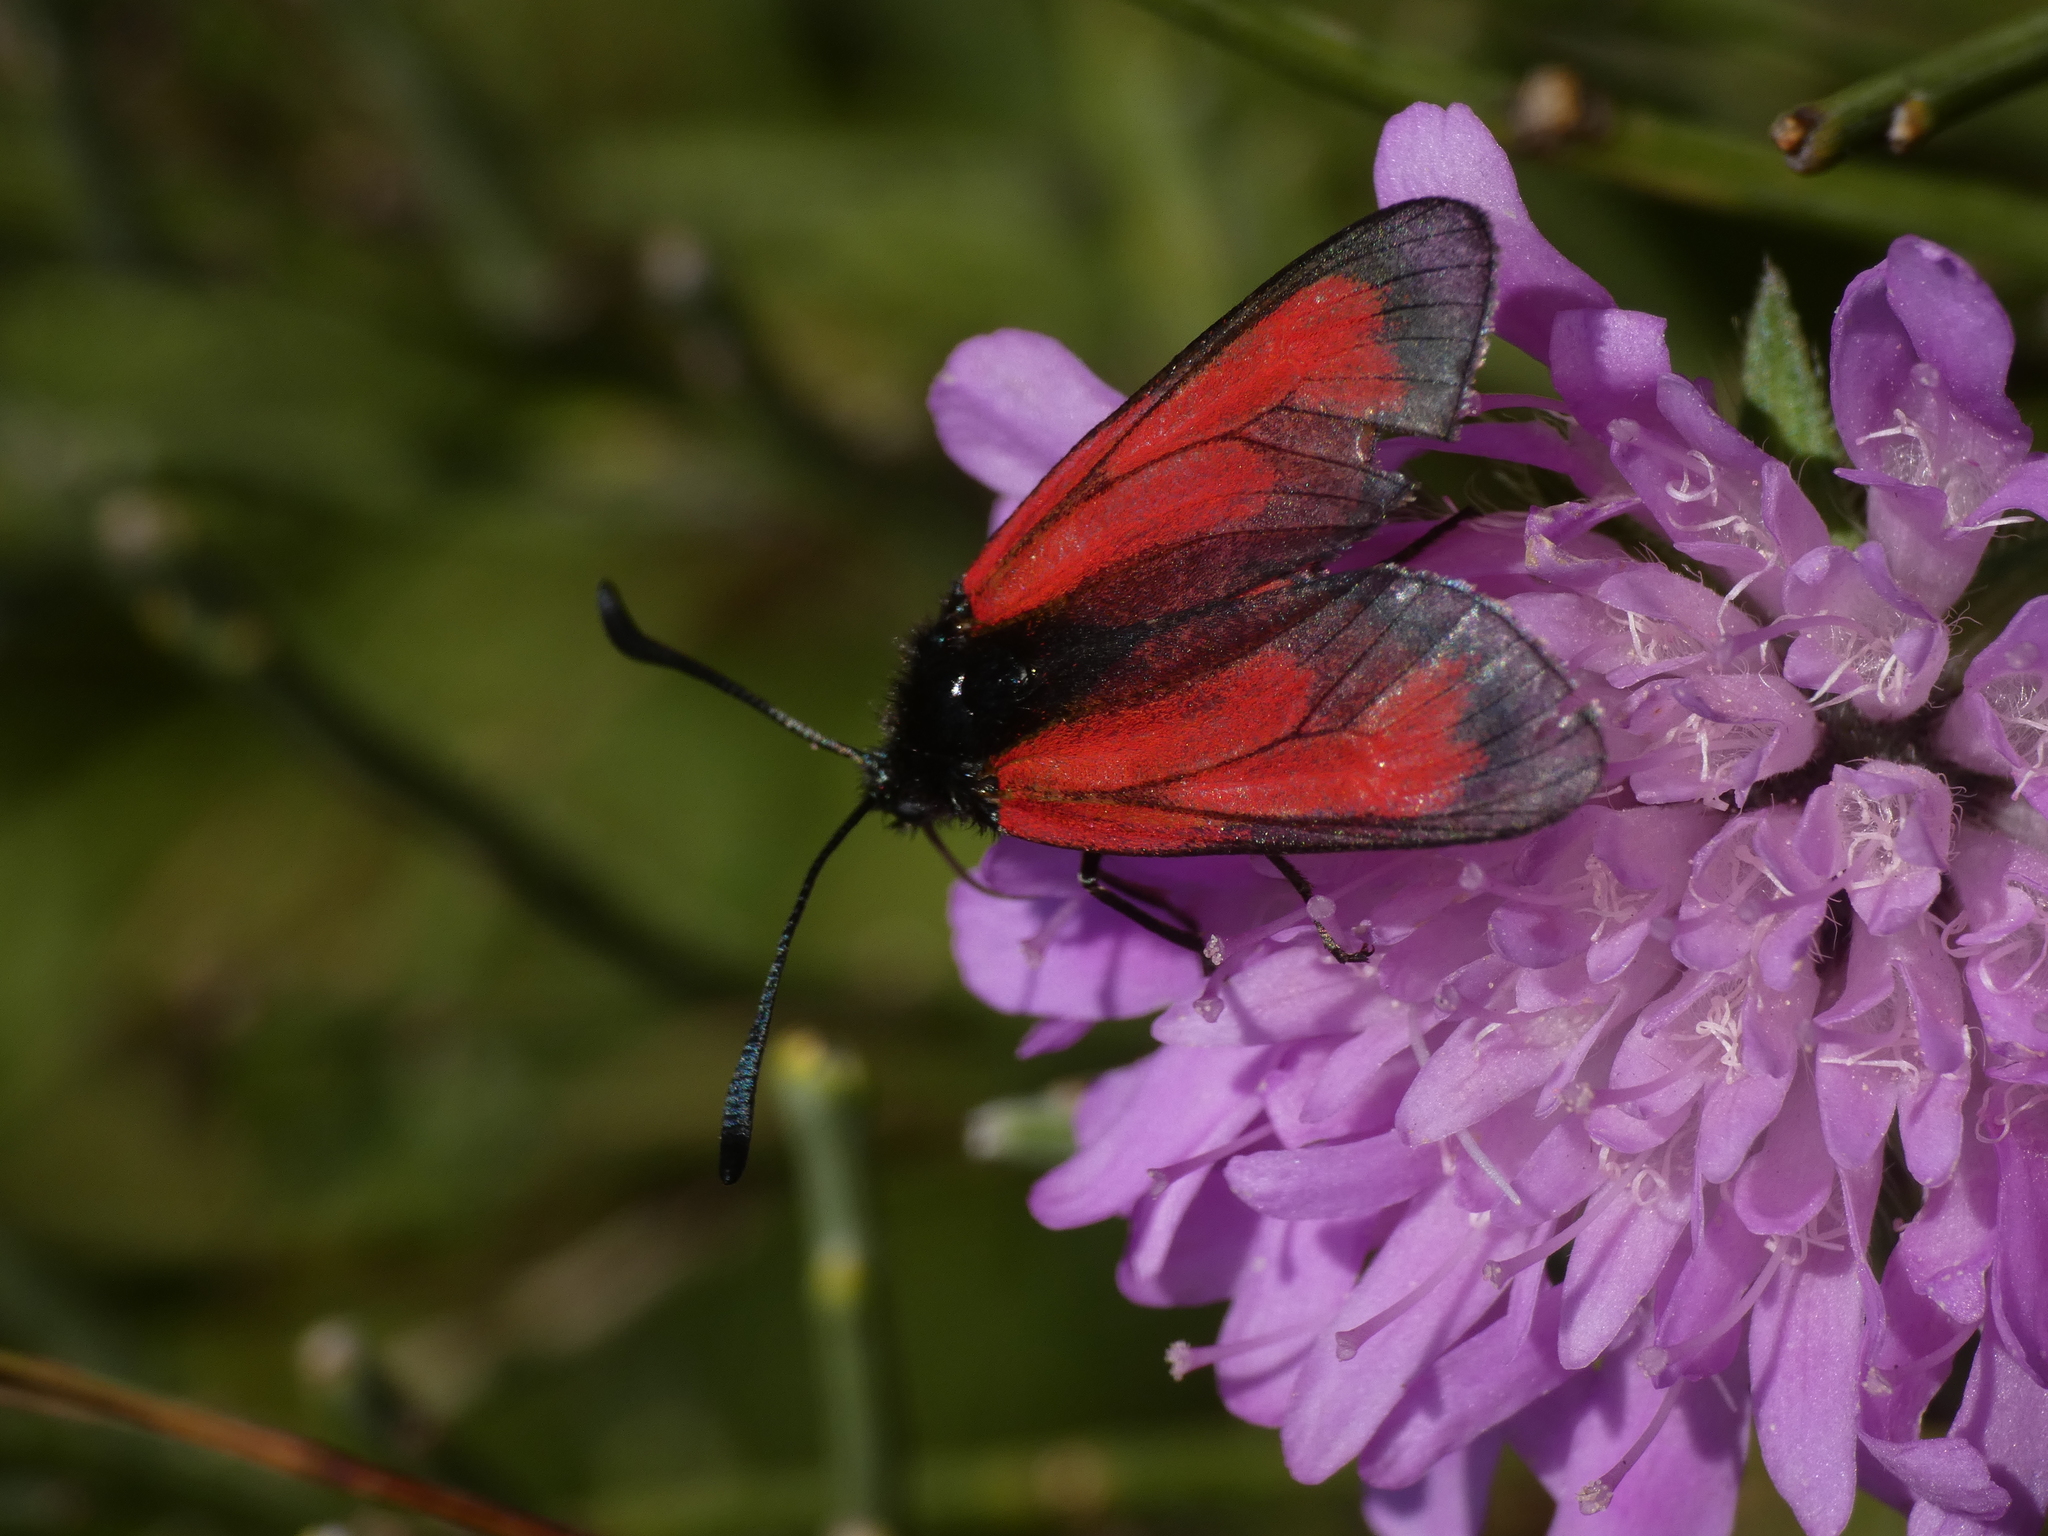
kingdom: Animalia
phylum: Arthropoda
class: Insecta
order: Lepidoptera
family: Zygaenidae
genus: Zygaena
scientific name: Zygaena purpuralis
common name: Transparent burnet
